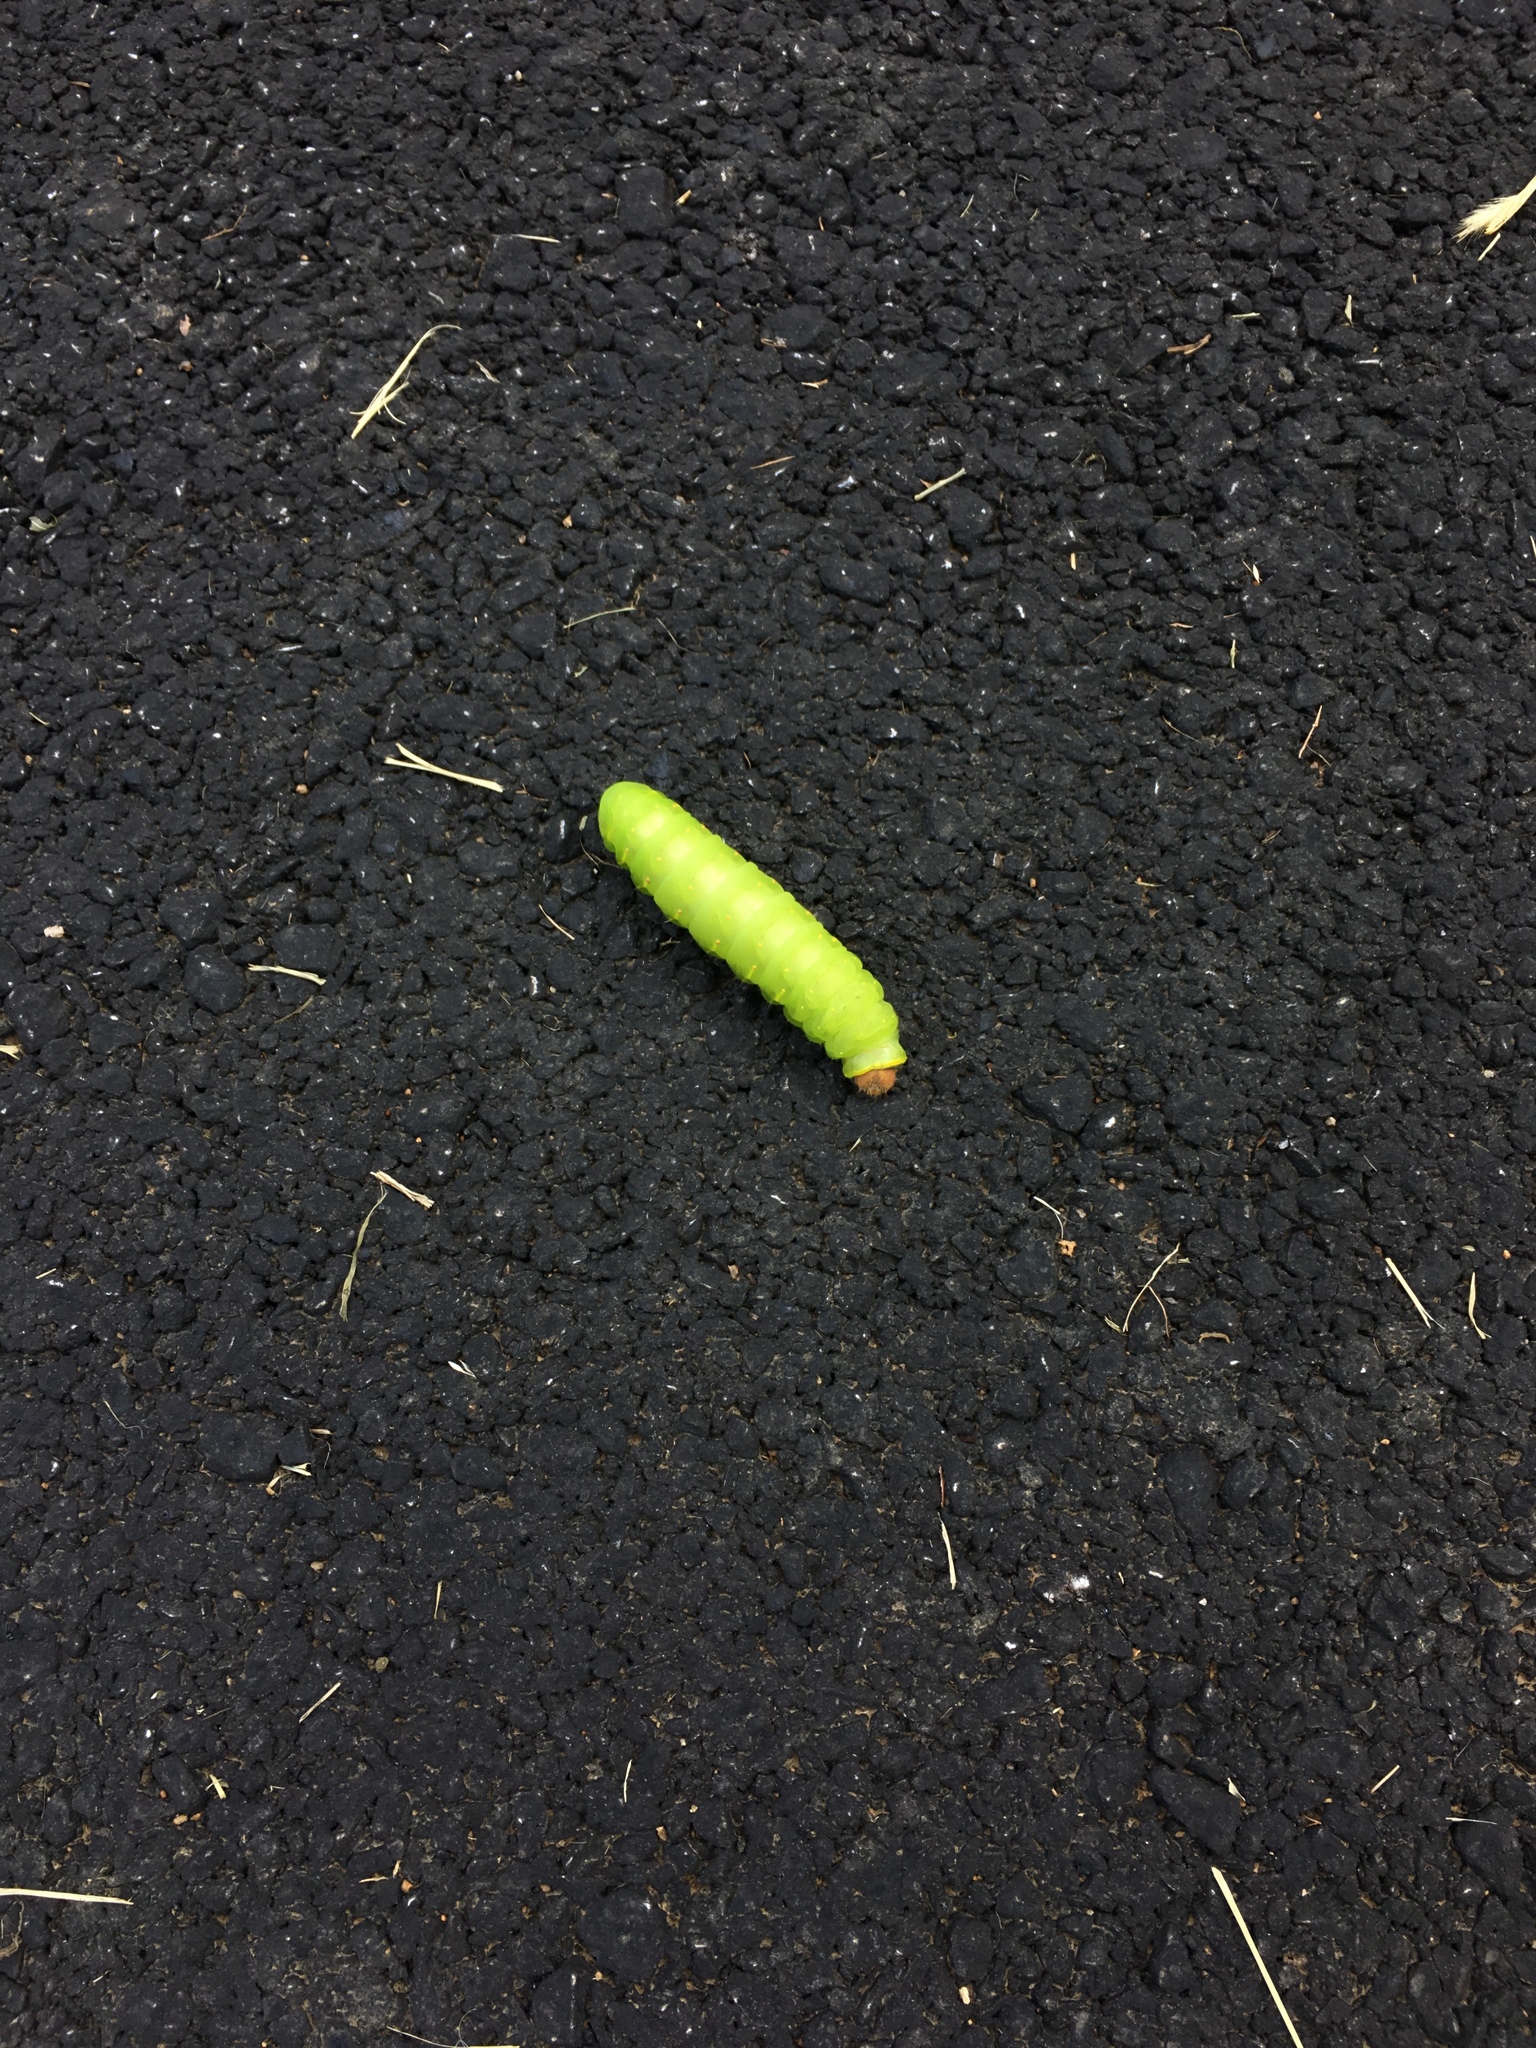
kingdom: Animalia
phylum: Arthropoda
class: Insecta
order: Lepidoptera
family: Saturniidae
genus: Antheraea
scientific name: Antheraea polyphemus
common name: Polyphemus moth
